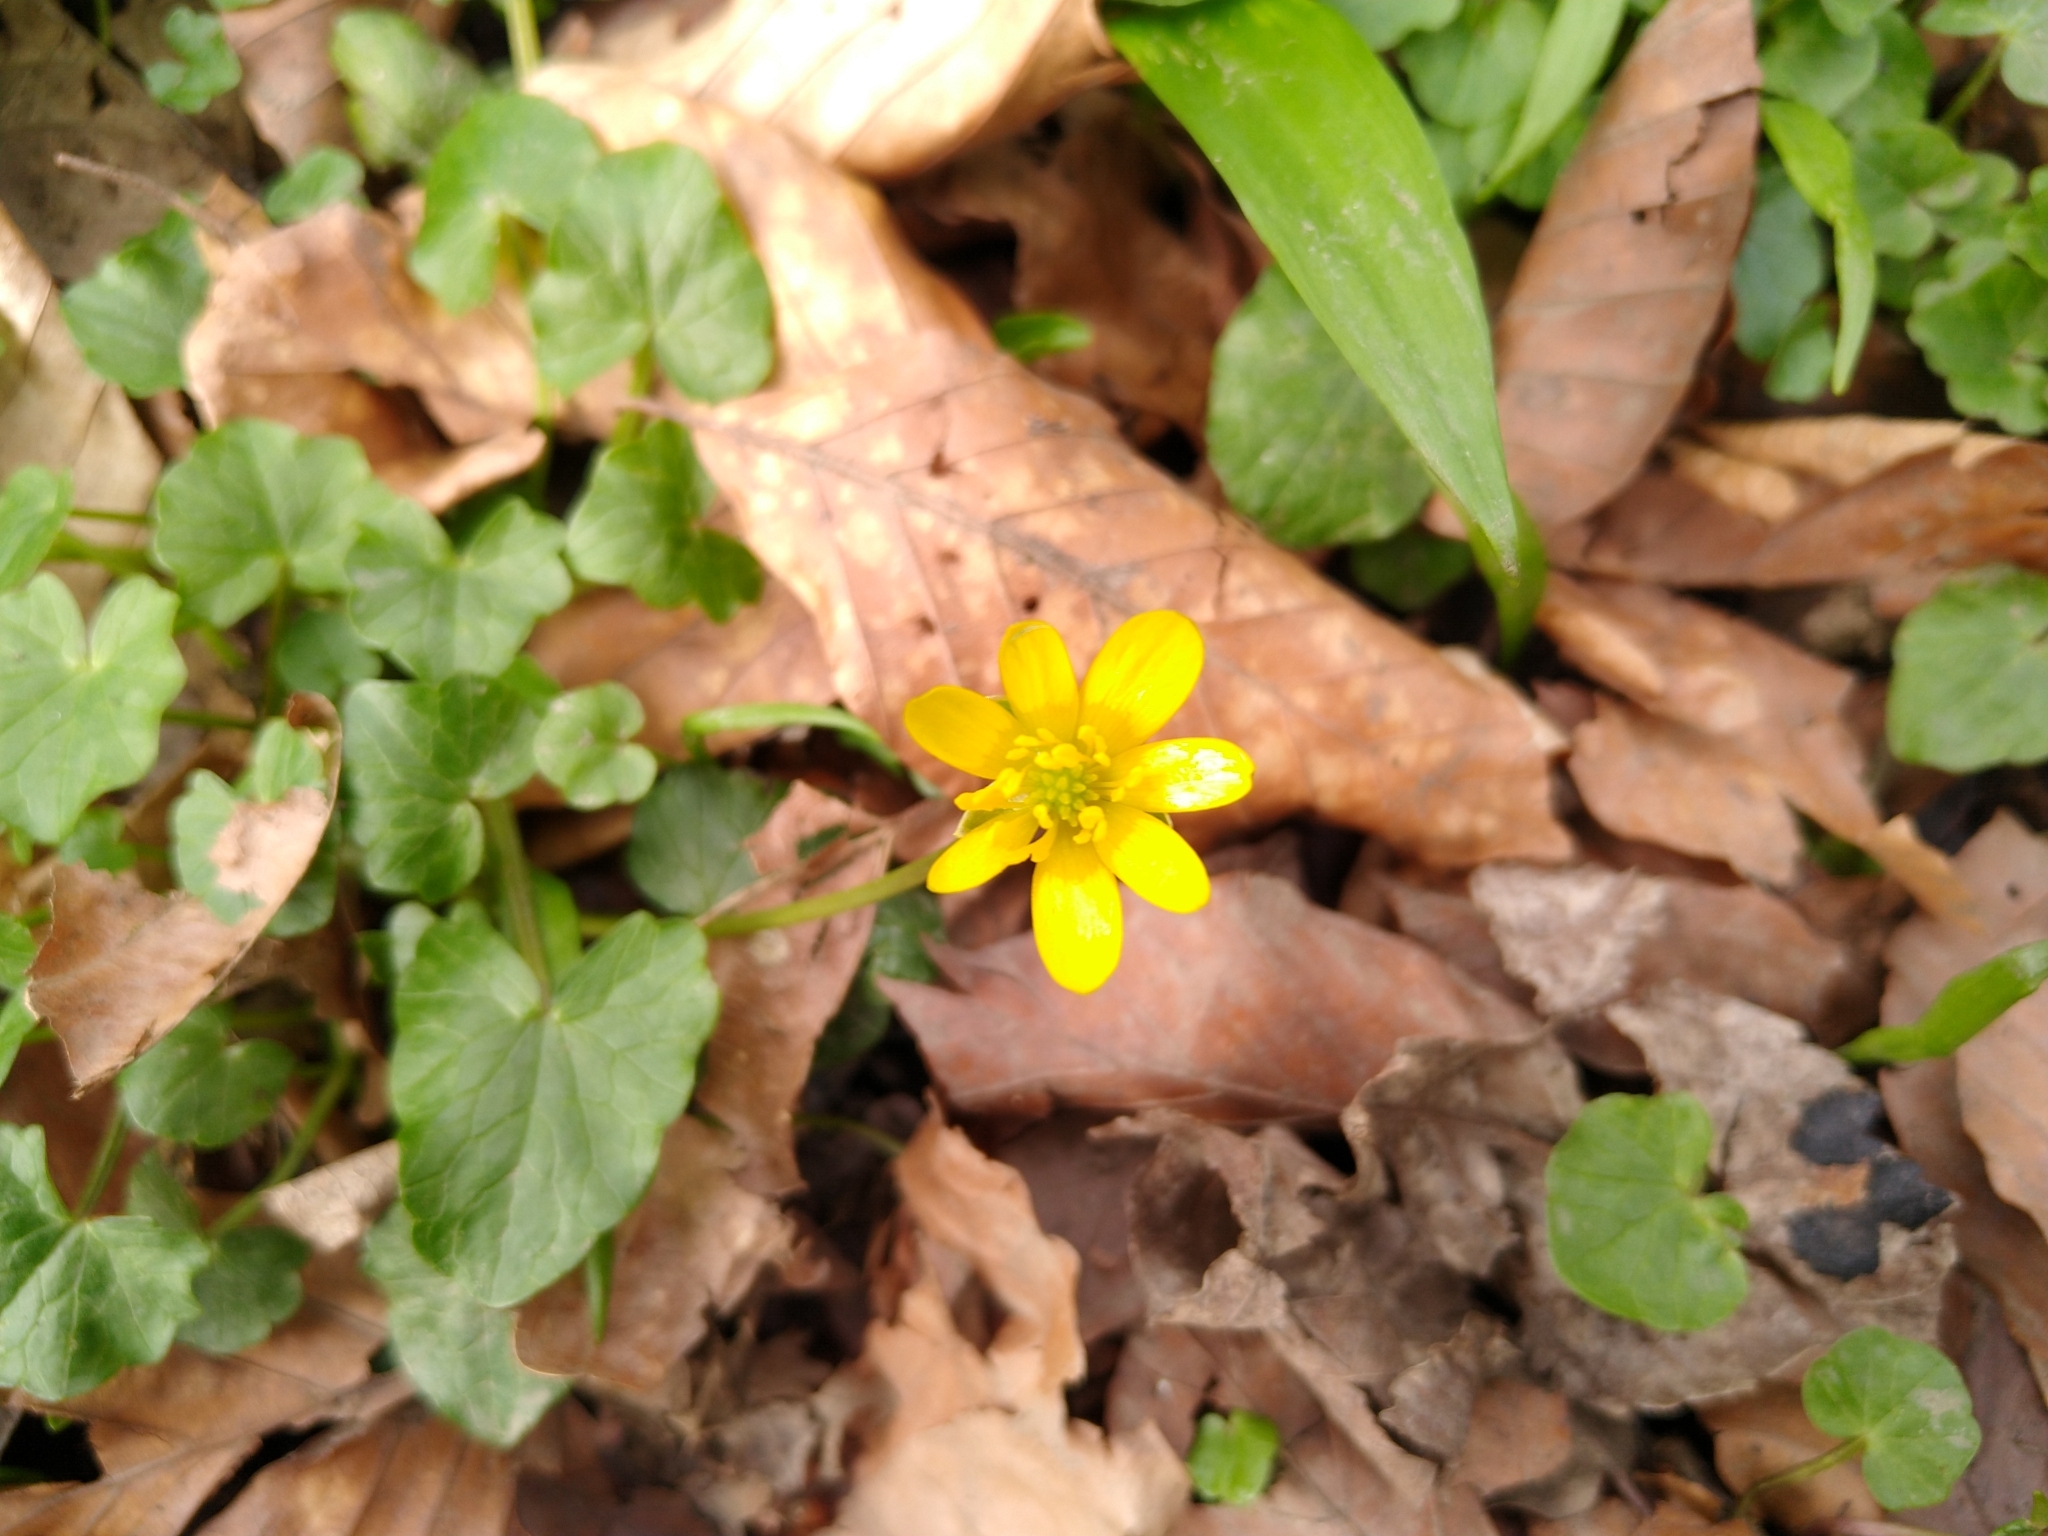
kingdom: Plantae
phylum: Tracheophyta
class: Magnoliopsida
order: Ranunculales
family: Ranunculaceae
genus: Ficaria
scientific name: Ficaria verna
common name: Lesser celandine
